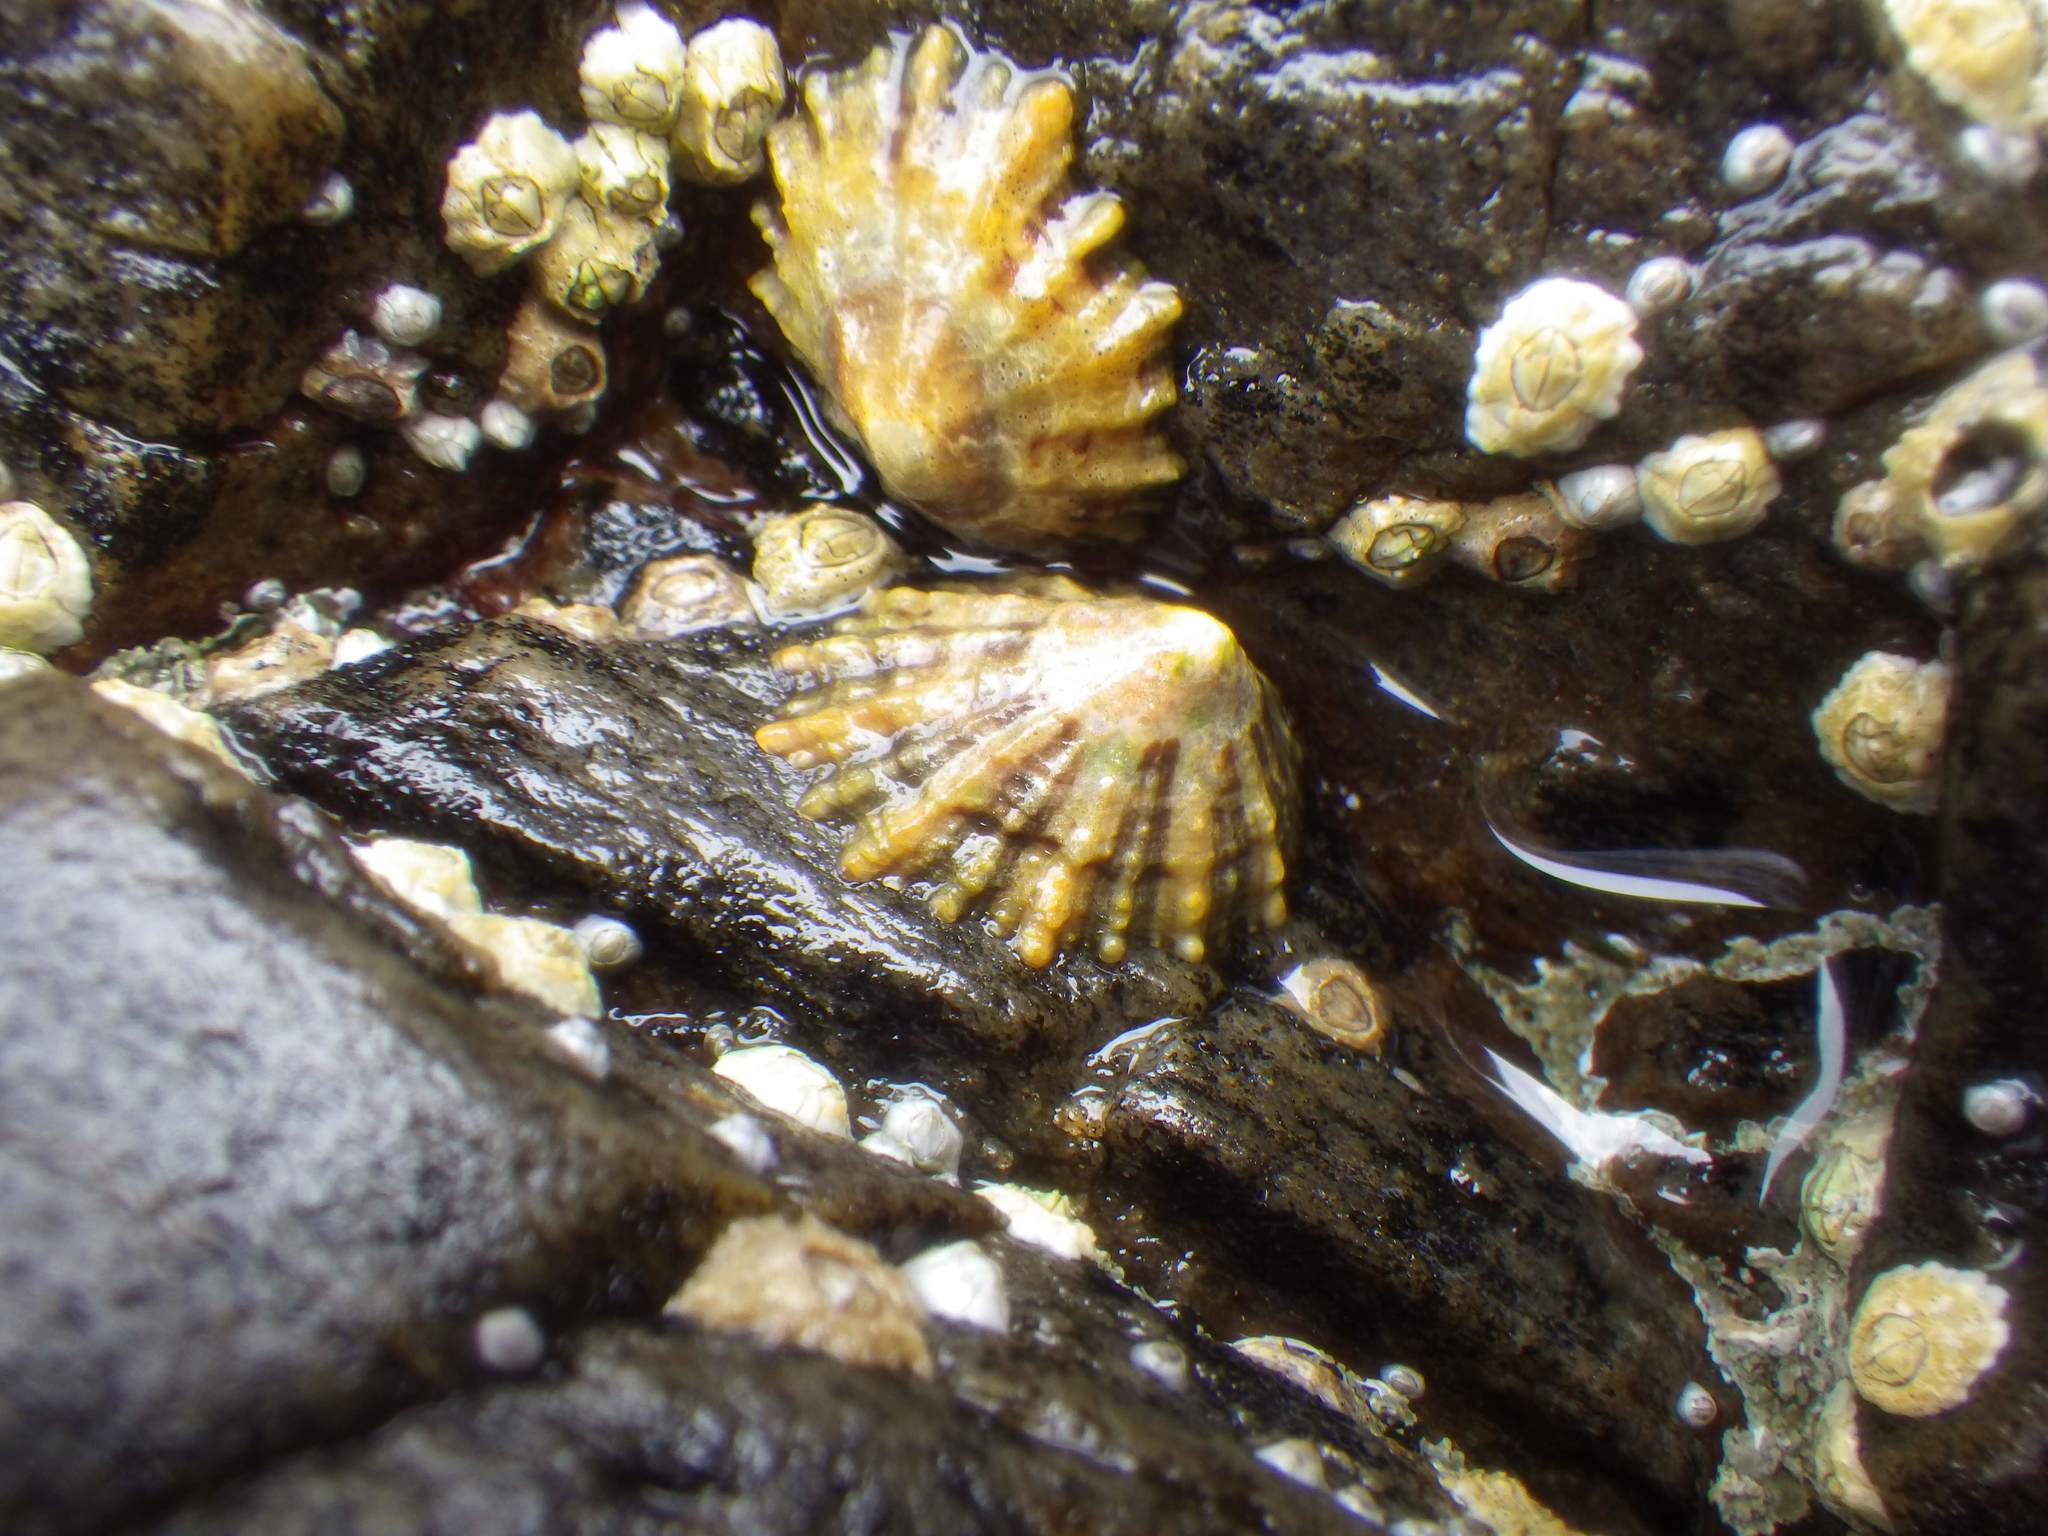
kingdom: Animalia
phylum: Mollusca
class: Gastropoda
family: Patellidae
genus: Patella
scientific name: Patella
